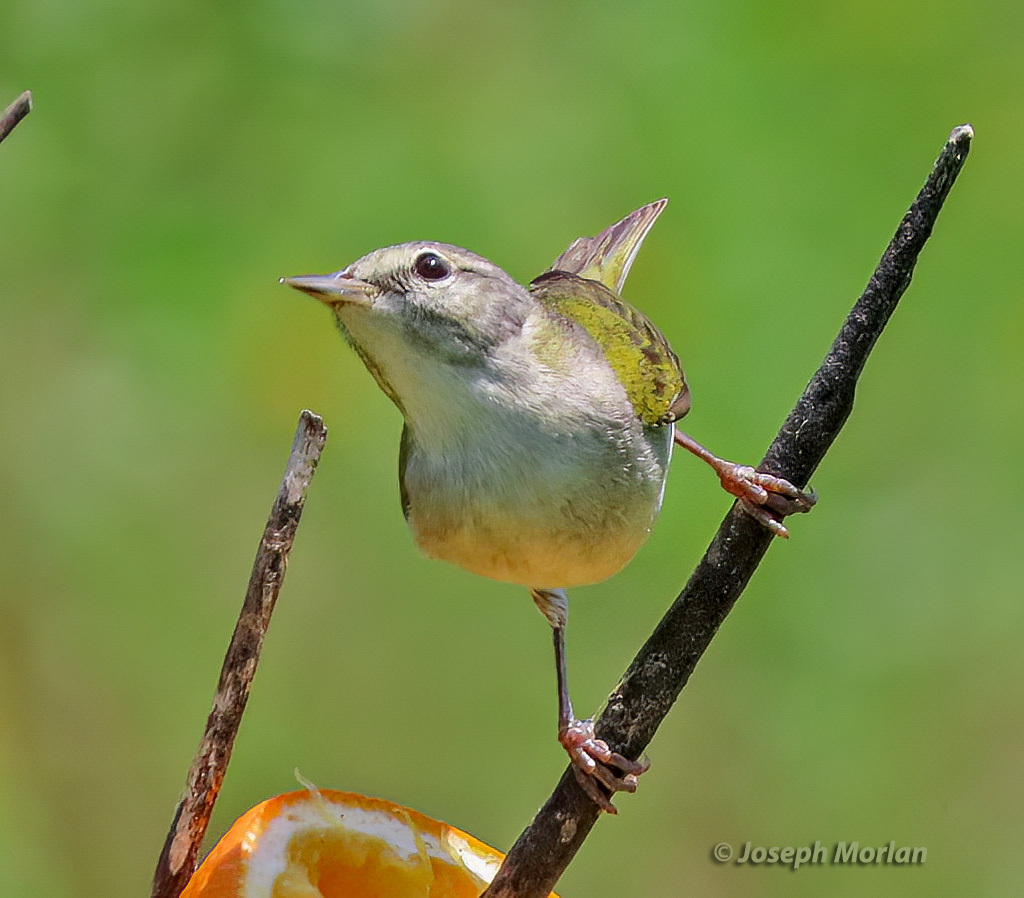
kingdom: Animalia
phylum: Chordata
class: Aves
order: Passeriformes
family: Parulidae
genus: Leiothlypis
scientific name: Leiothlypis peregrina
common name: Tennessee warbler
